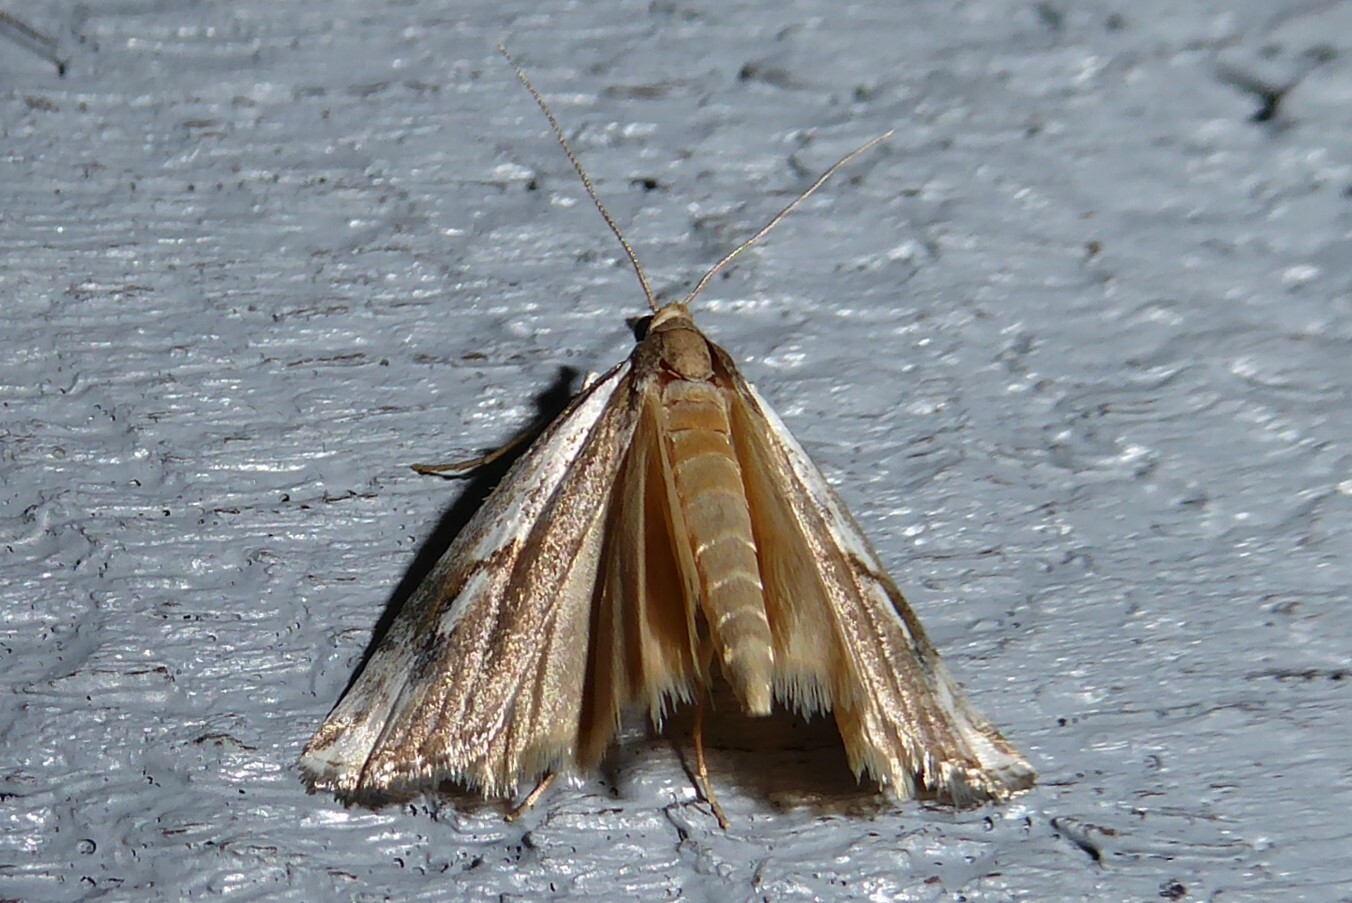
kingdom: Animalia
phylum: Arthropoda
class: Insecta
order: Lepidoptera
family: Crambidae
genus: Orocrambus
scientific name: Orocrambus vulgaris
